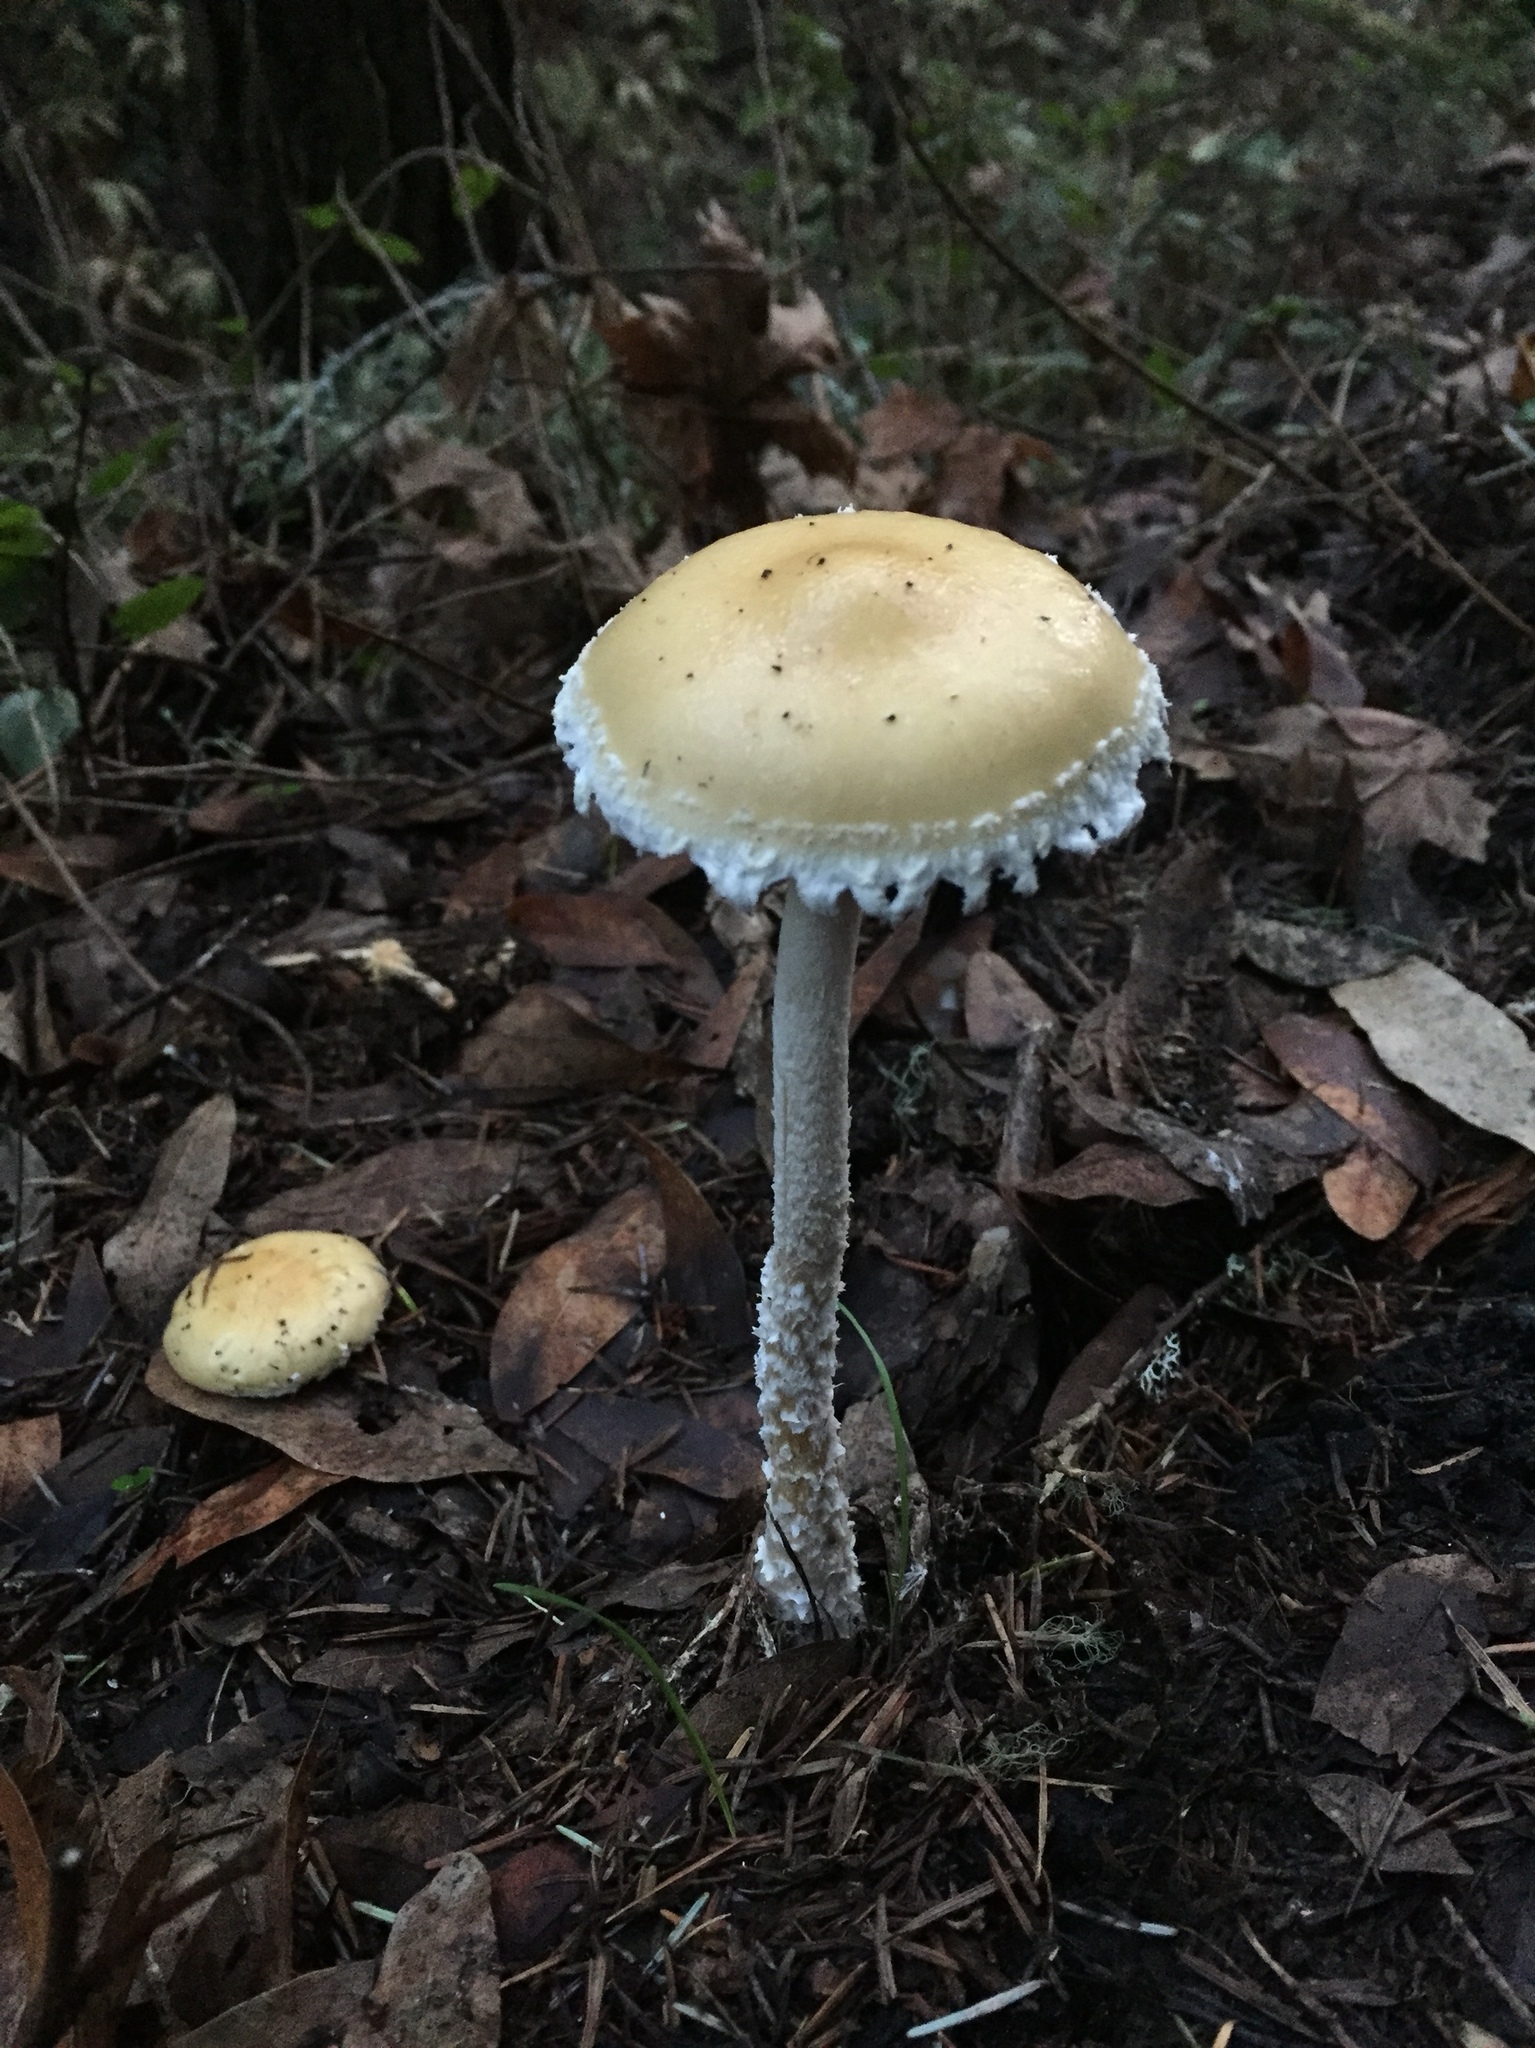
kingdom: Fungi
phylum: Basidiomycota
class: Agaricomycetes
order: Agaricales
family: Strophariaceae
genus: Stropharia
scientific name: Stropharia ambigua
